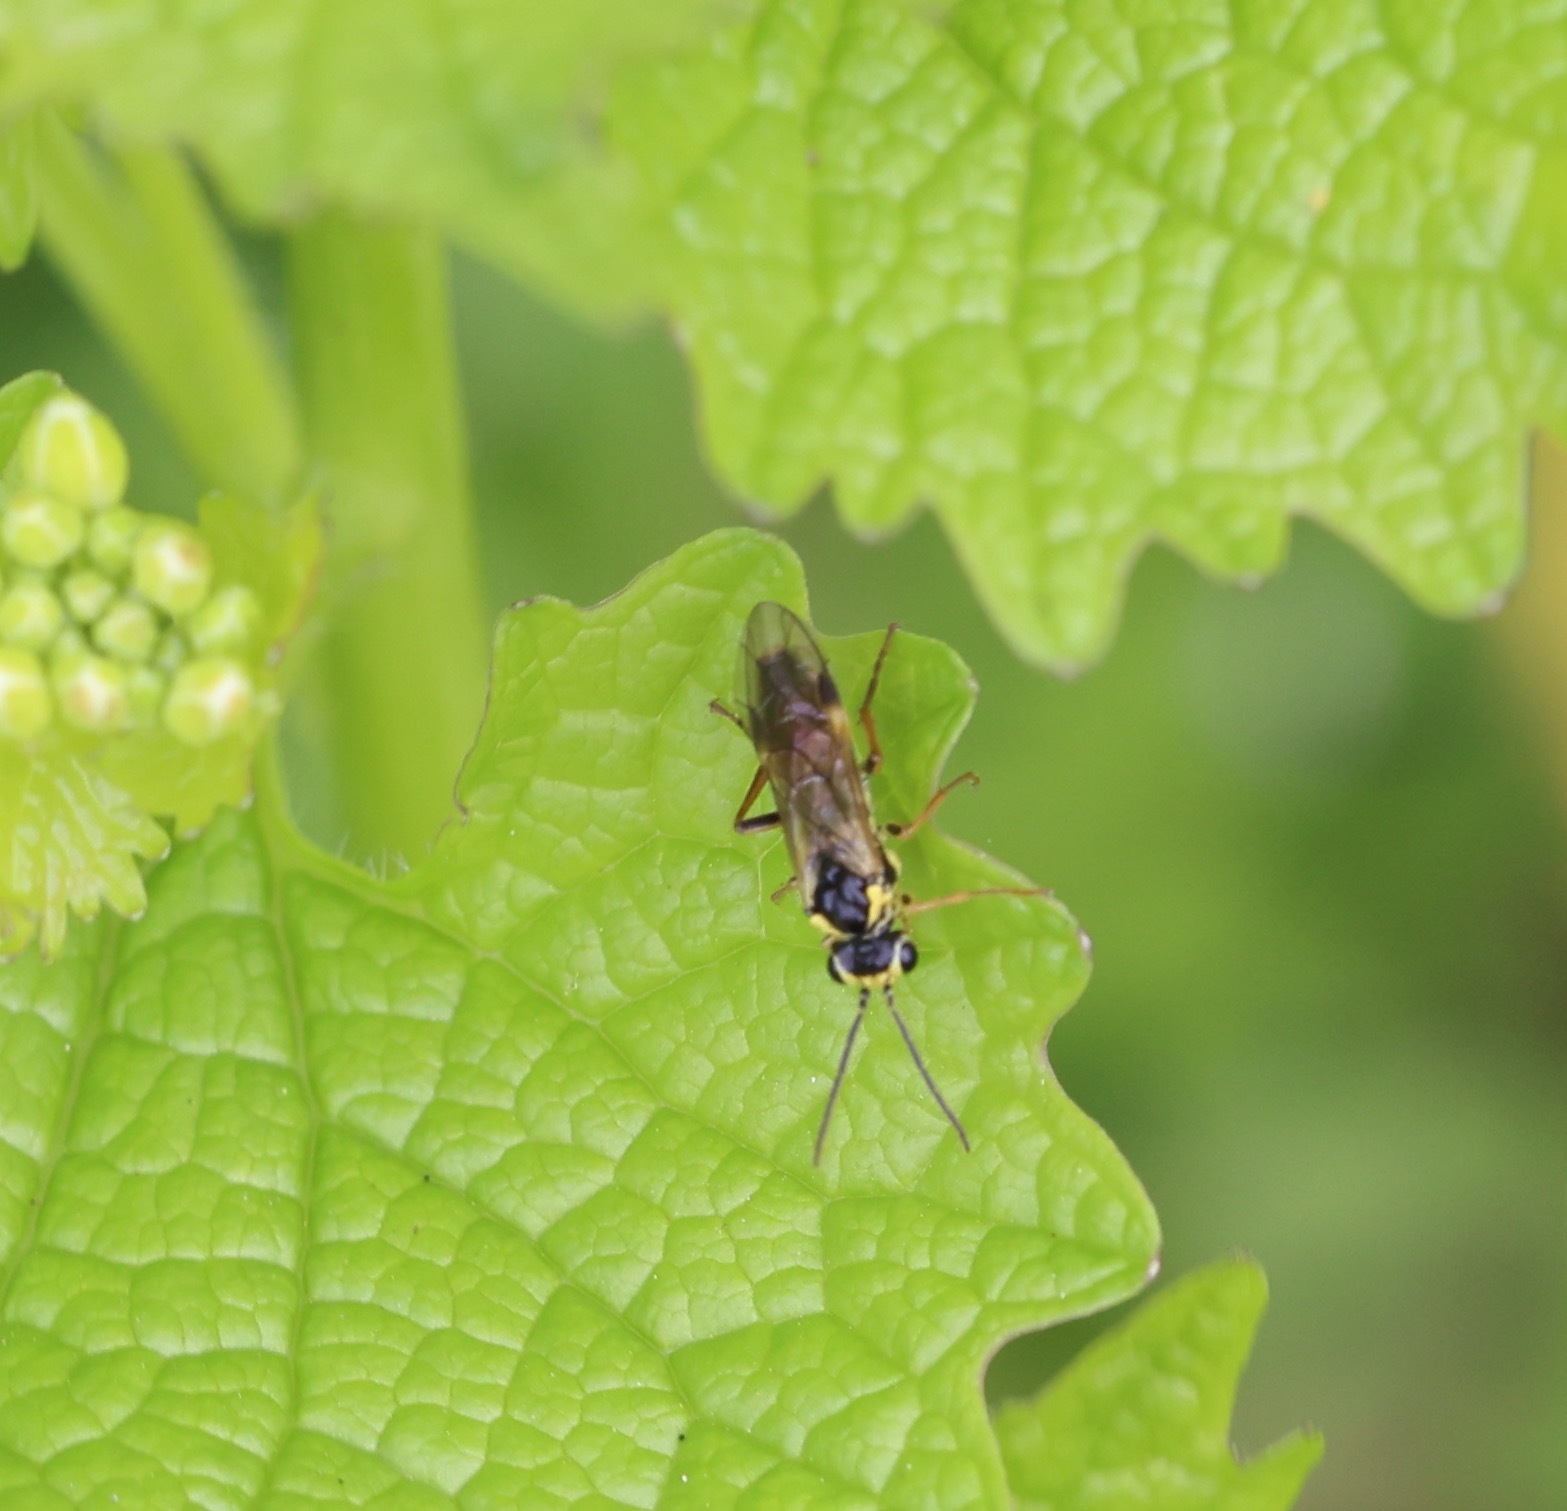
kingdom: Animalia
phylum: Arthropoda
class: Insecta
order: Hymenoptera
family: Tenthredinidae
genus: Aglaostigma
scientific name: Aglaostigma fulvipes
